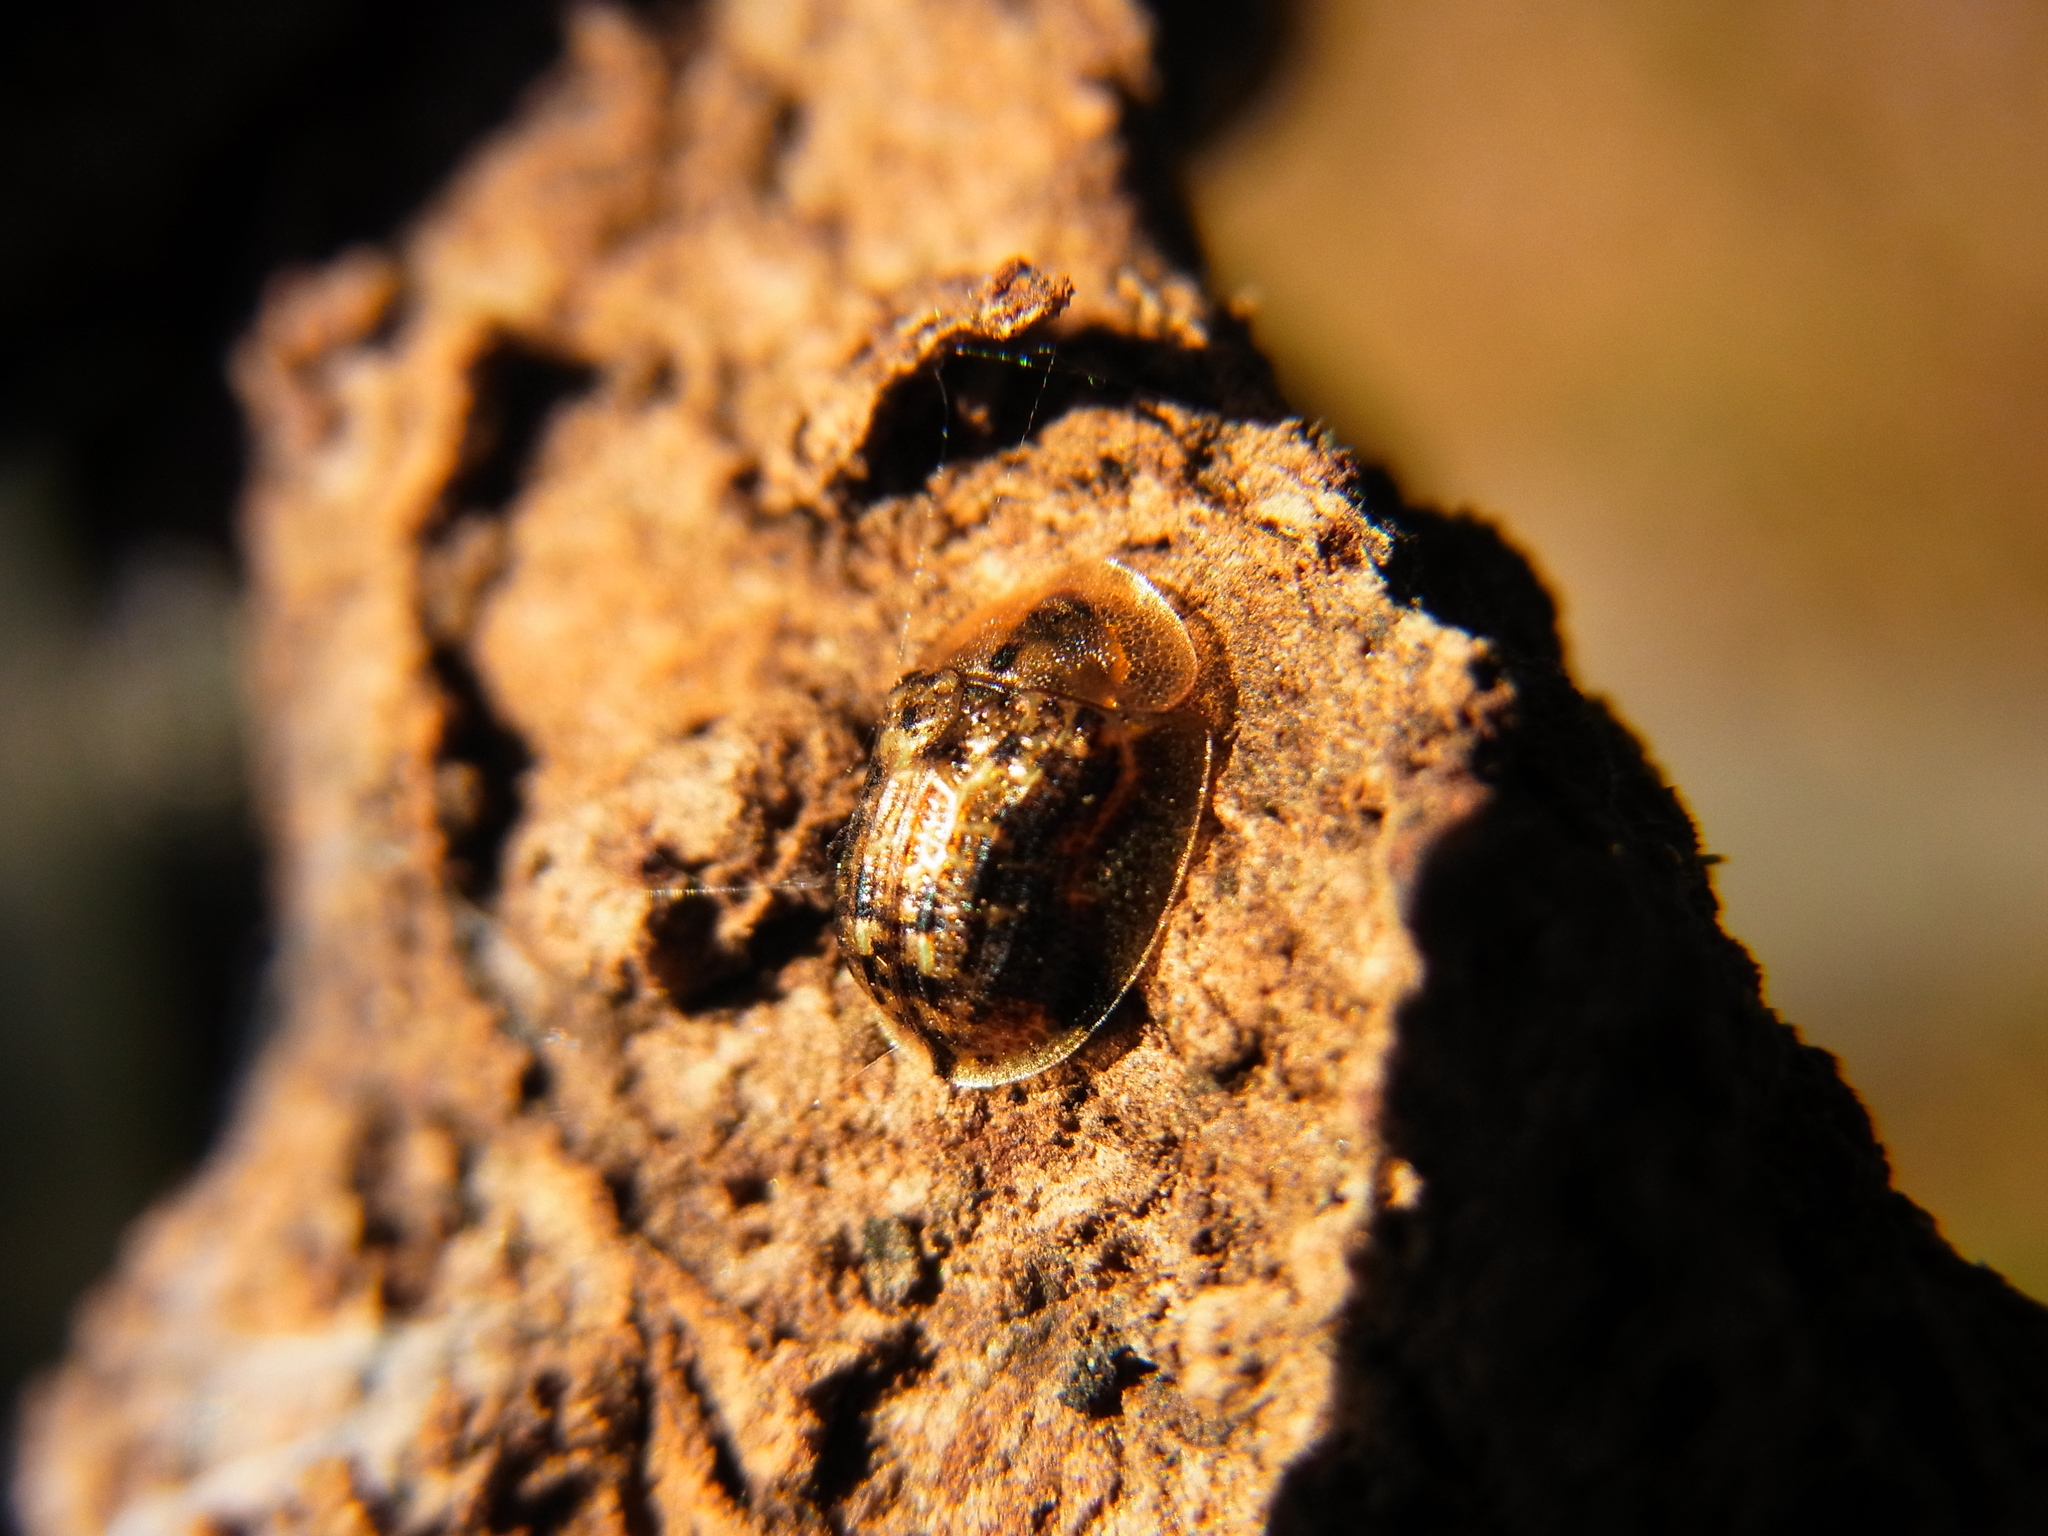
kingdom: Animalia
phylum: Arthropoda
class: Insecta
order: Coleoptera
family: Chrysomelidae
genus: Cassida
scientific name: Cassida piperata
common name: Small tortoise beetle
